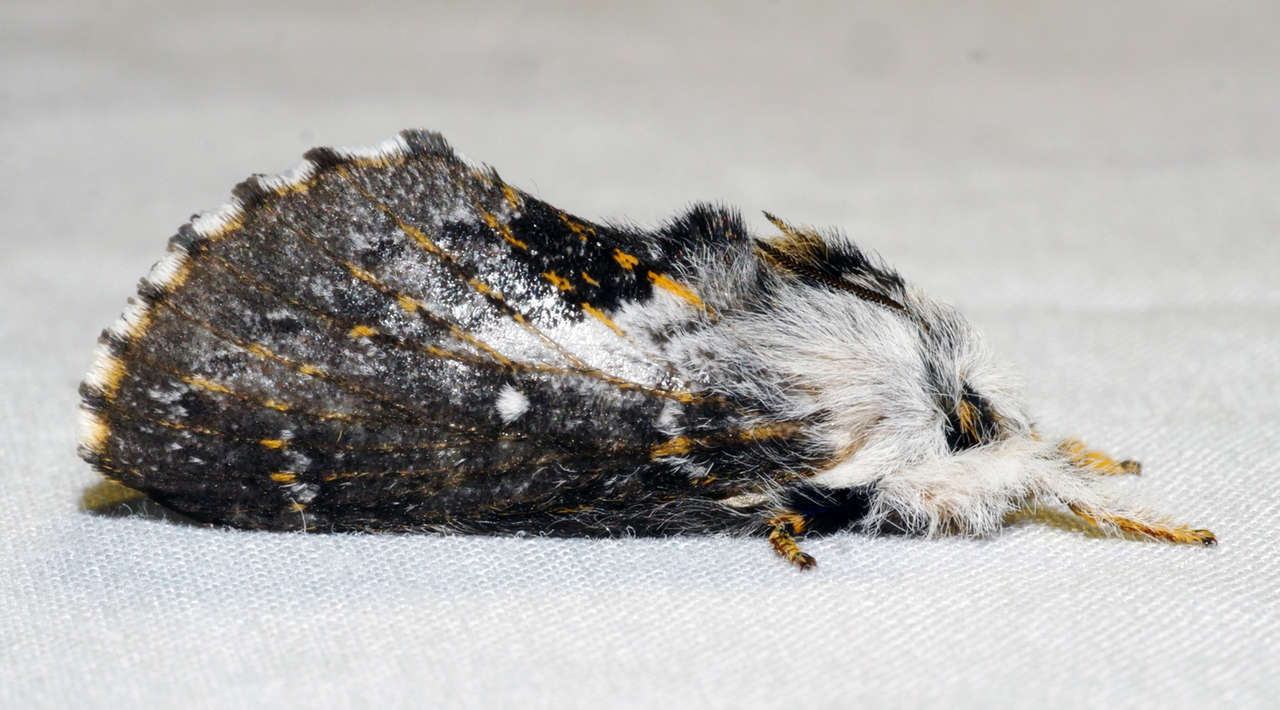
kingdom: Animalia
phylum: Arthropoda
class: Insecta
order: Lepidoptera
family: Lasiocampidae
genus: Porela
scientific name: Porela vetusta
